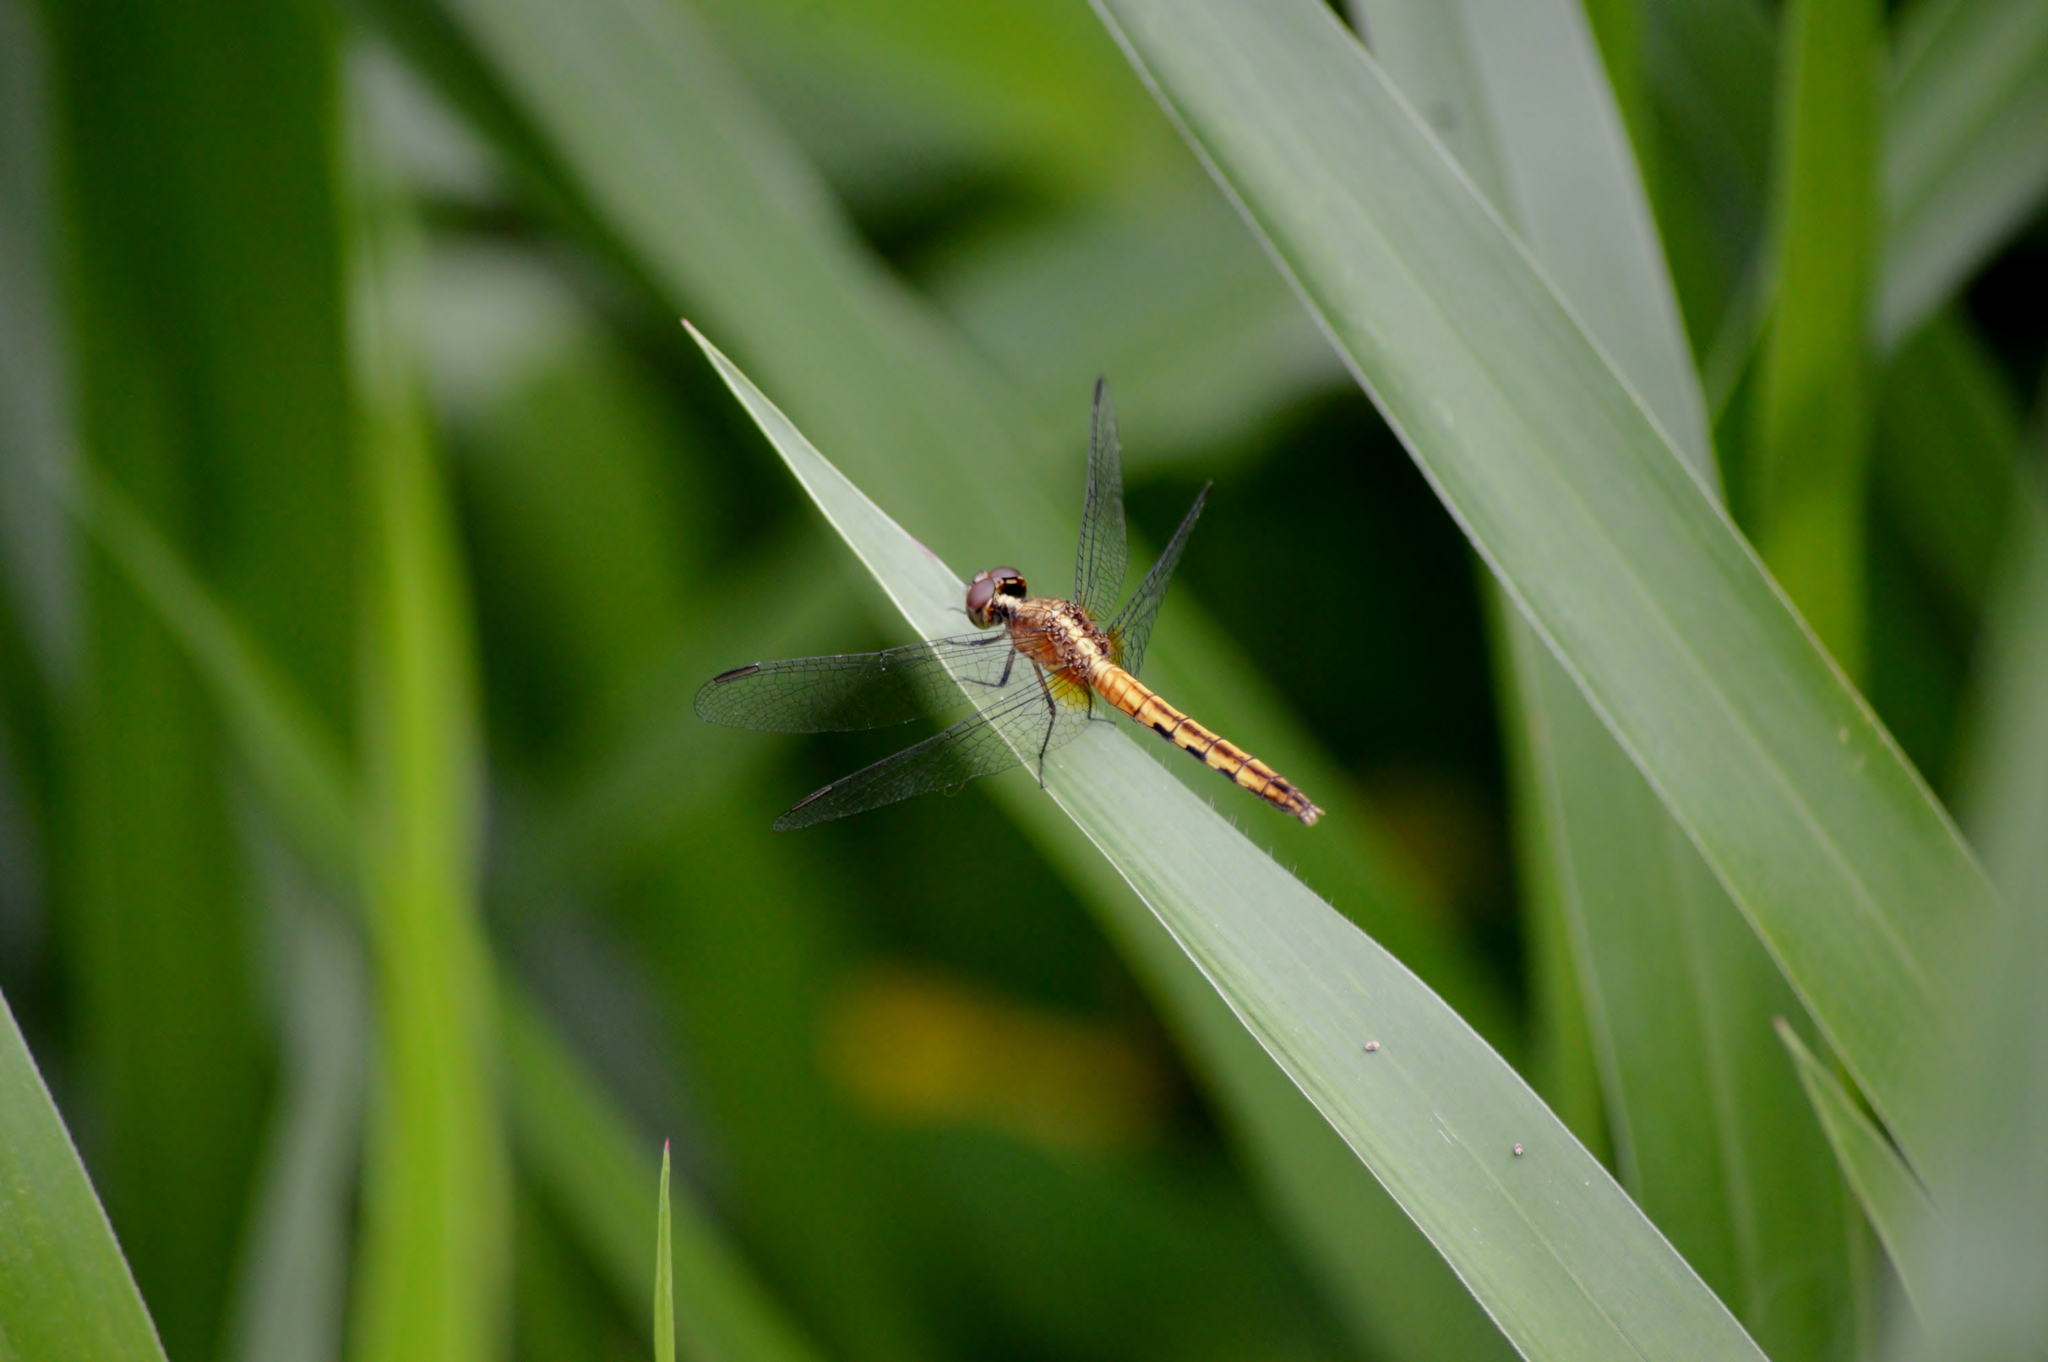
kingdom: Animalia
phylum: Arthropoda
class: Insecta
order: Odonata
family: Libellulidae
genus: Erythrodiplax
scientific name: Erythrodiplax avittata
